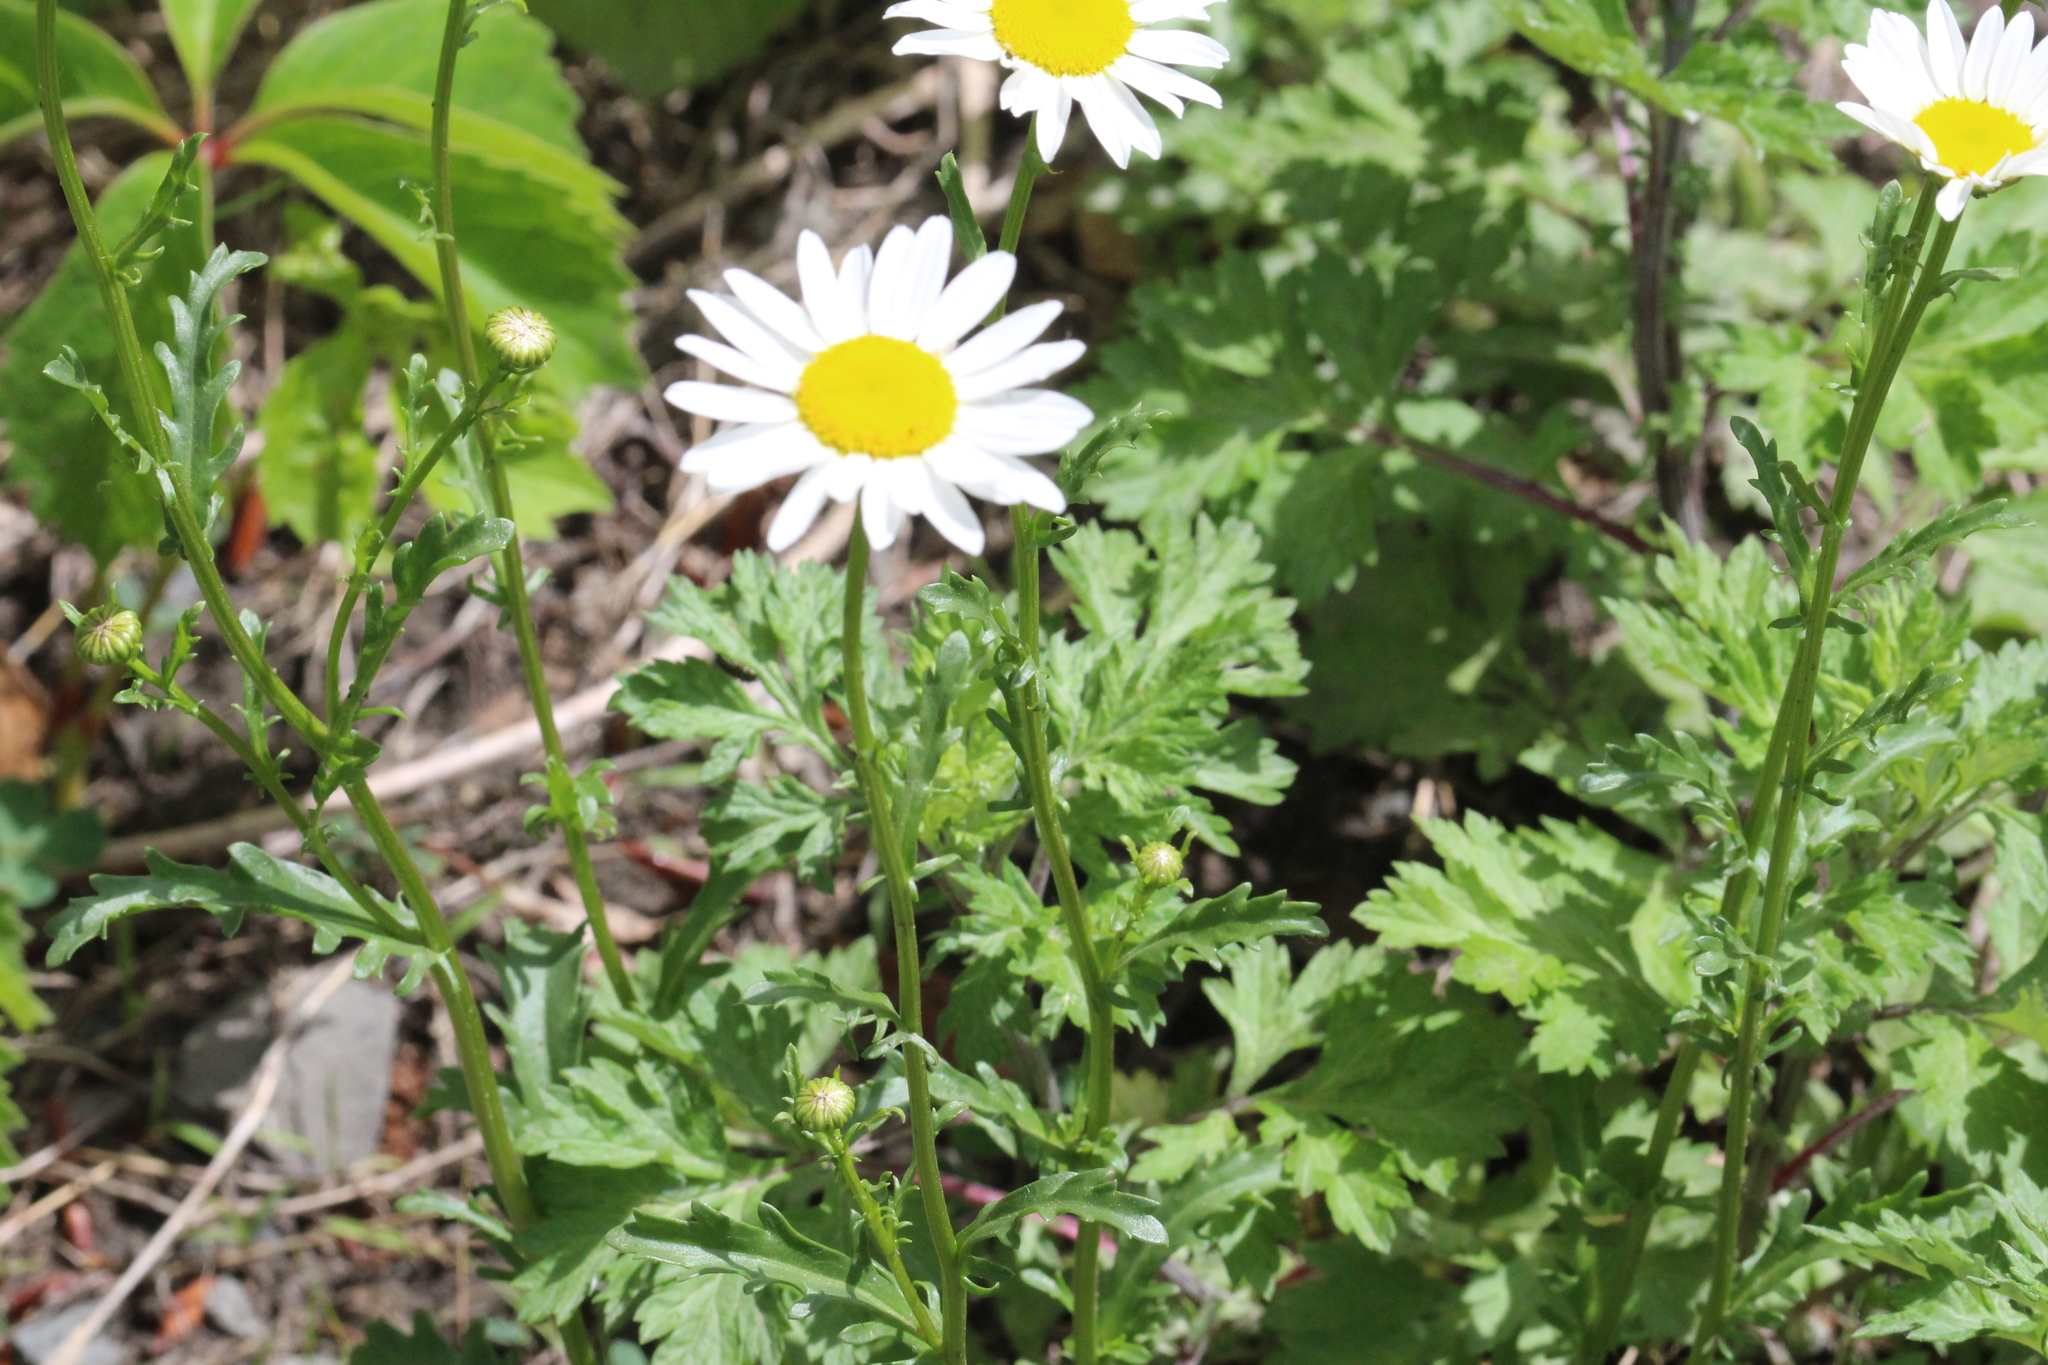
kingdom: Plantae
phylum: Tracheophyta
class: Magnoliopsida
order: Asterales
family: Asteraceae
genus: Leucanthemum
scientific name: Leucanthemum vulgare
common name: Oxeye daisy
